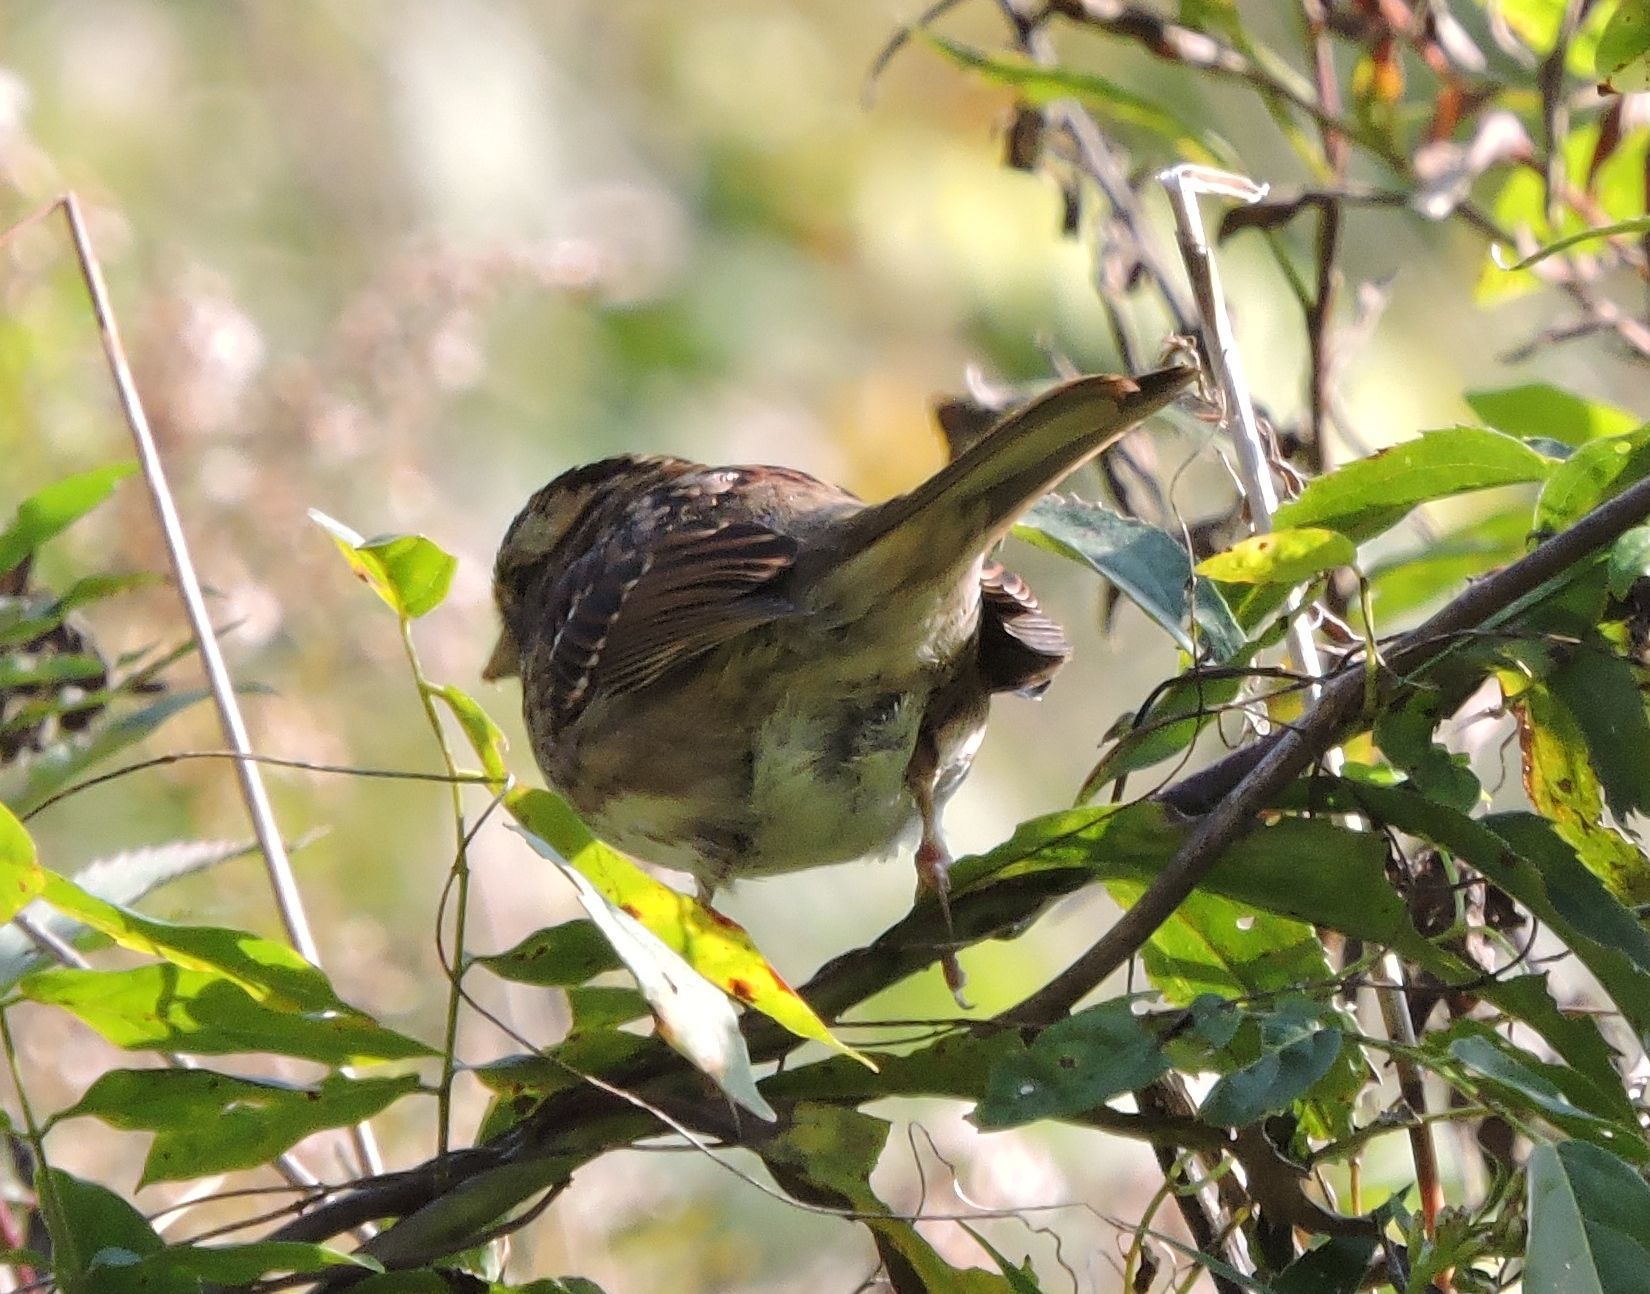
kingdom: Animalia
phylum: Chordata
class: Aves
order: Passeriformes
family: Passerellidae
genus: Zonotrichia
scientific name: Zonotrichia albicollis
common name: White-throated sparrow
